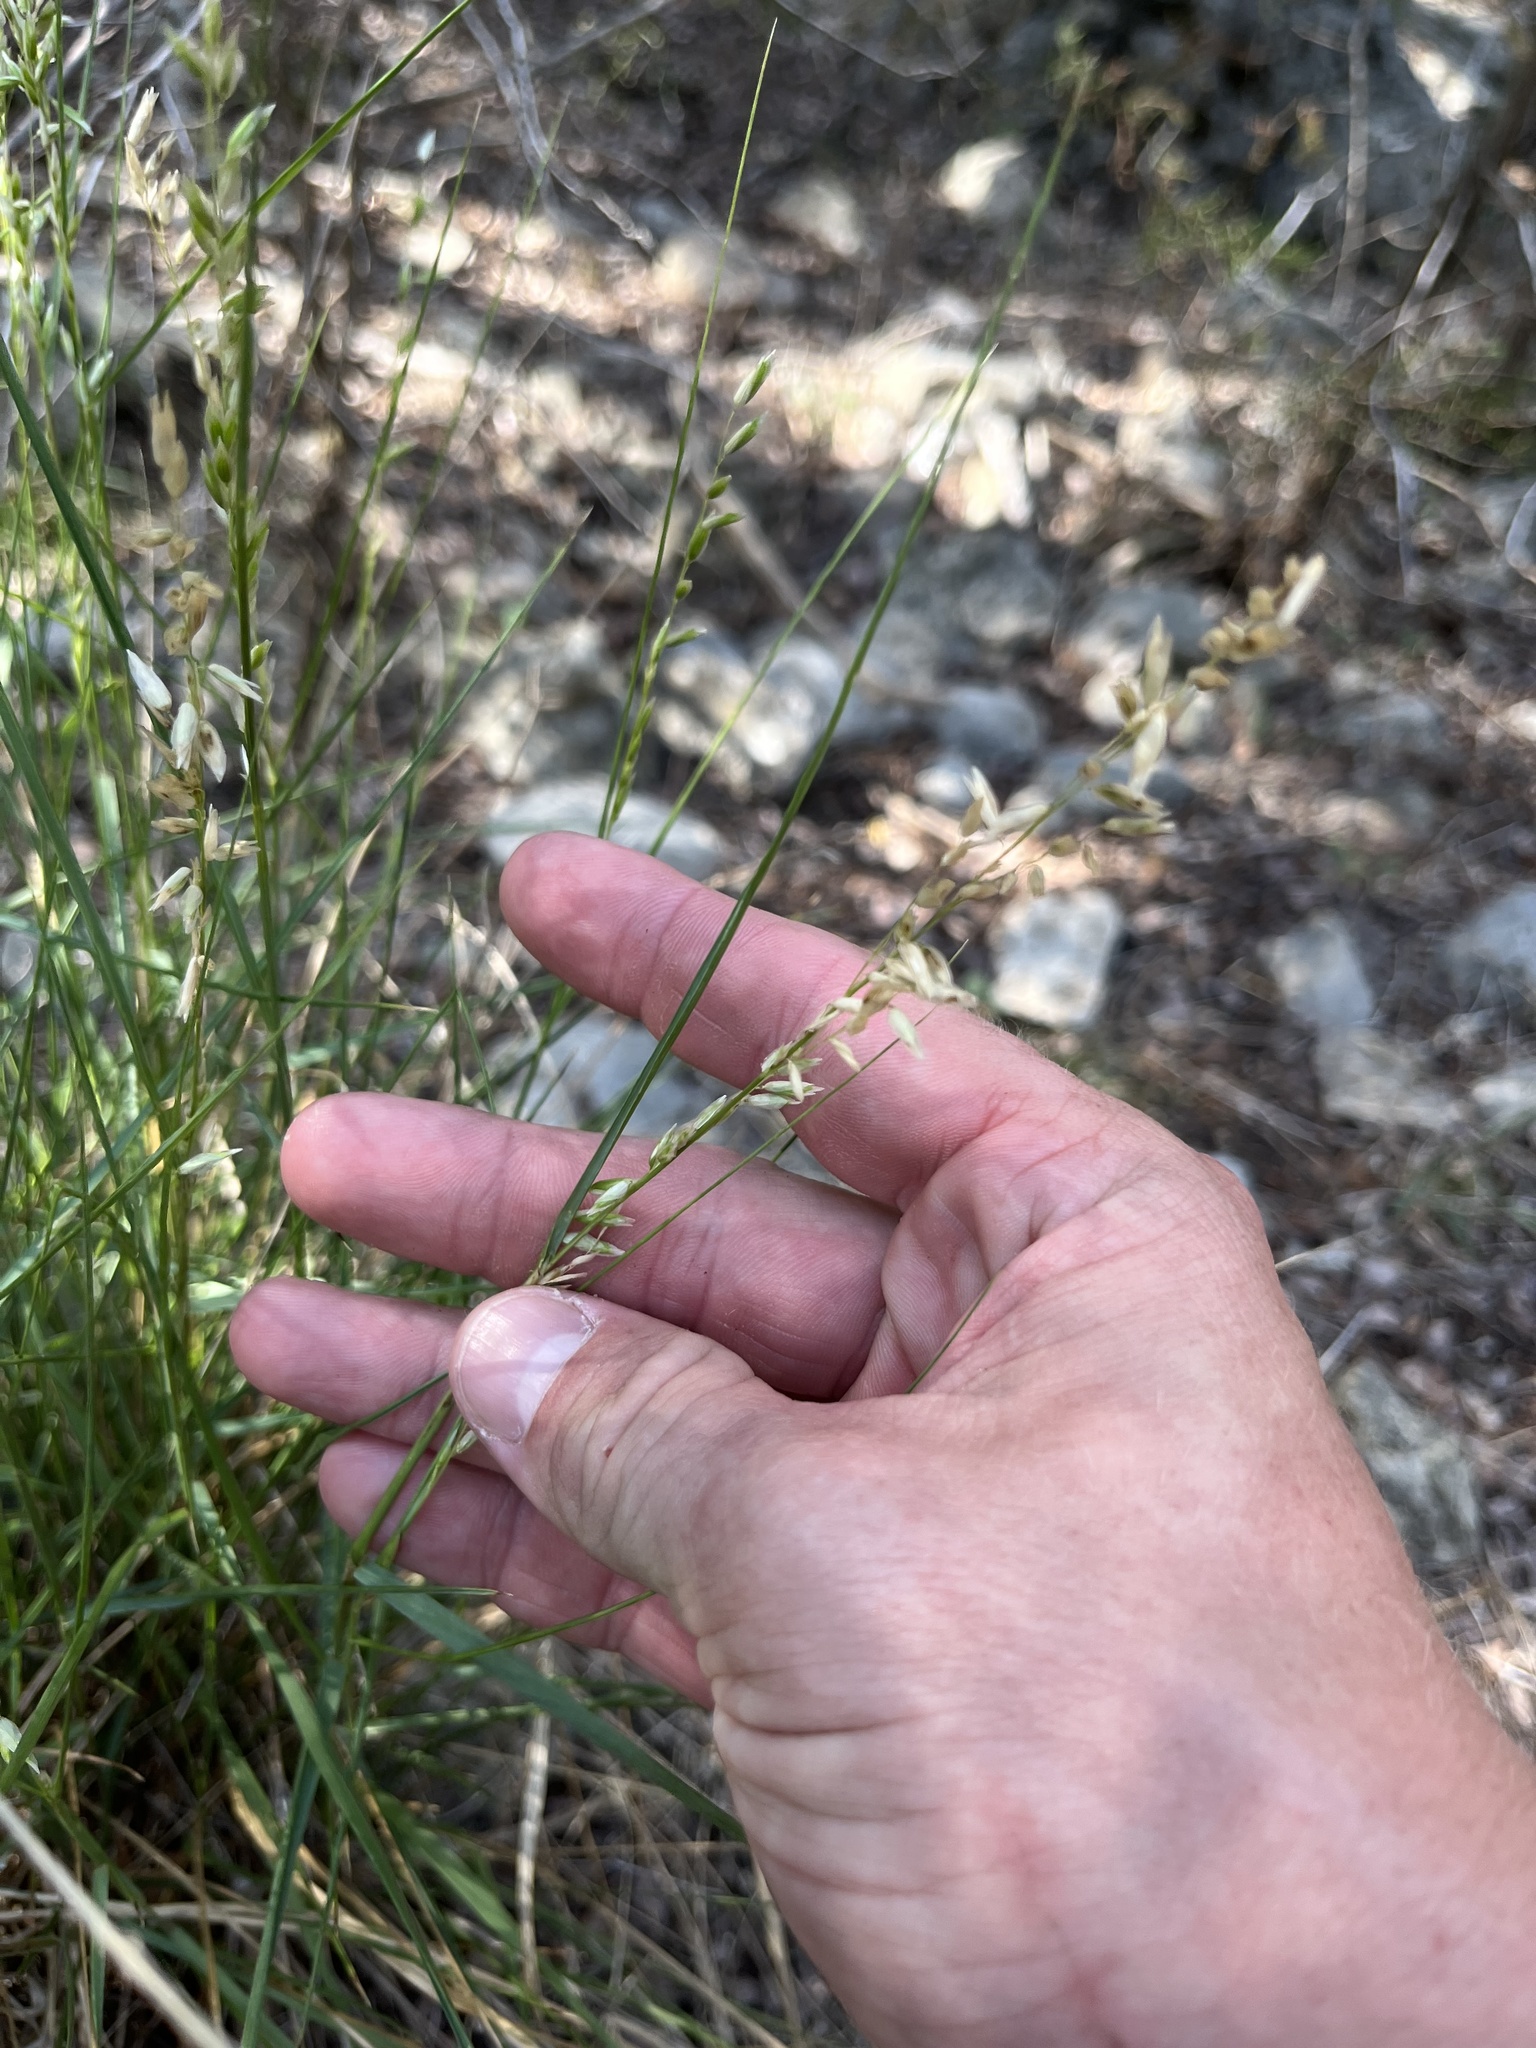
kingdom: Plantae
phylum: Tracheophyta
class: Liliopsida
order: Poales
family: Poaceae
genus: Melica
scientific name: Melica nitens
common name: Three-flower melic
